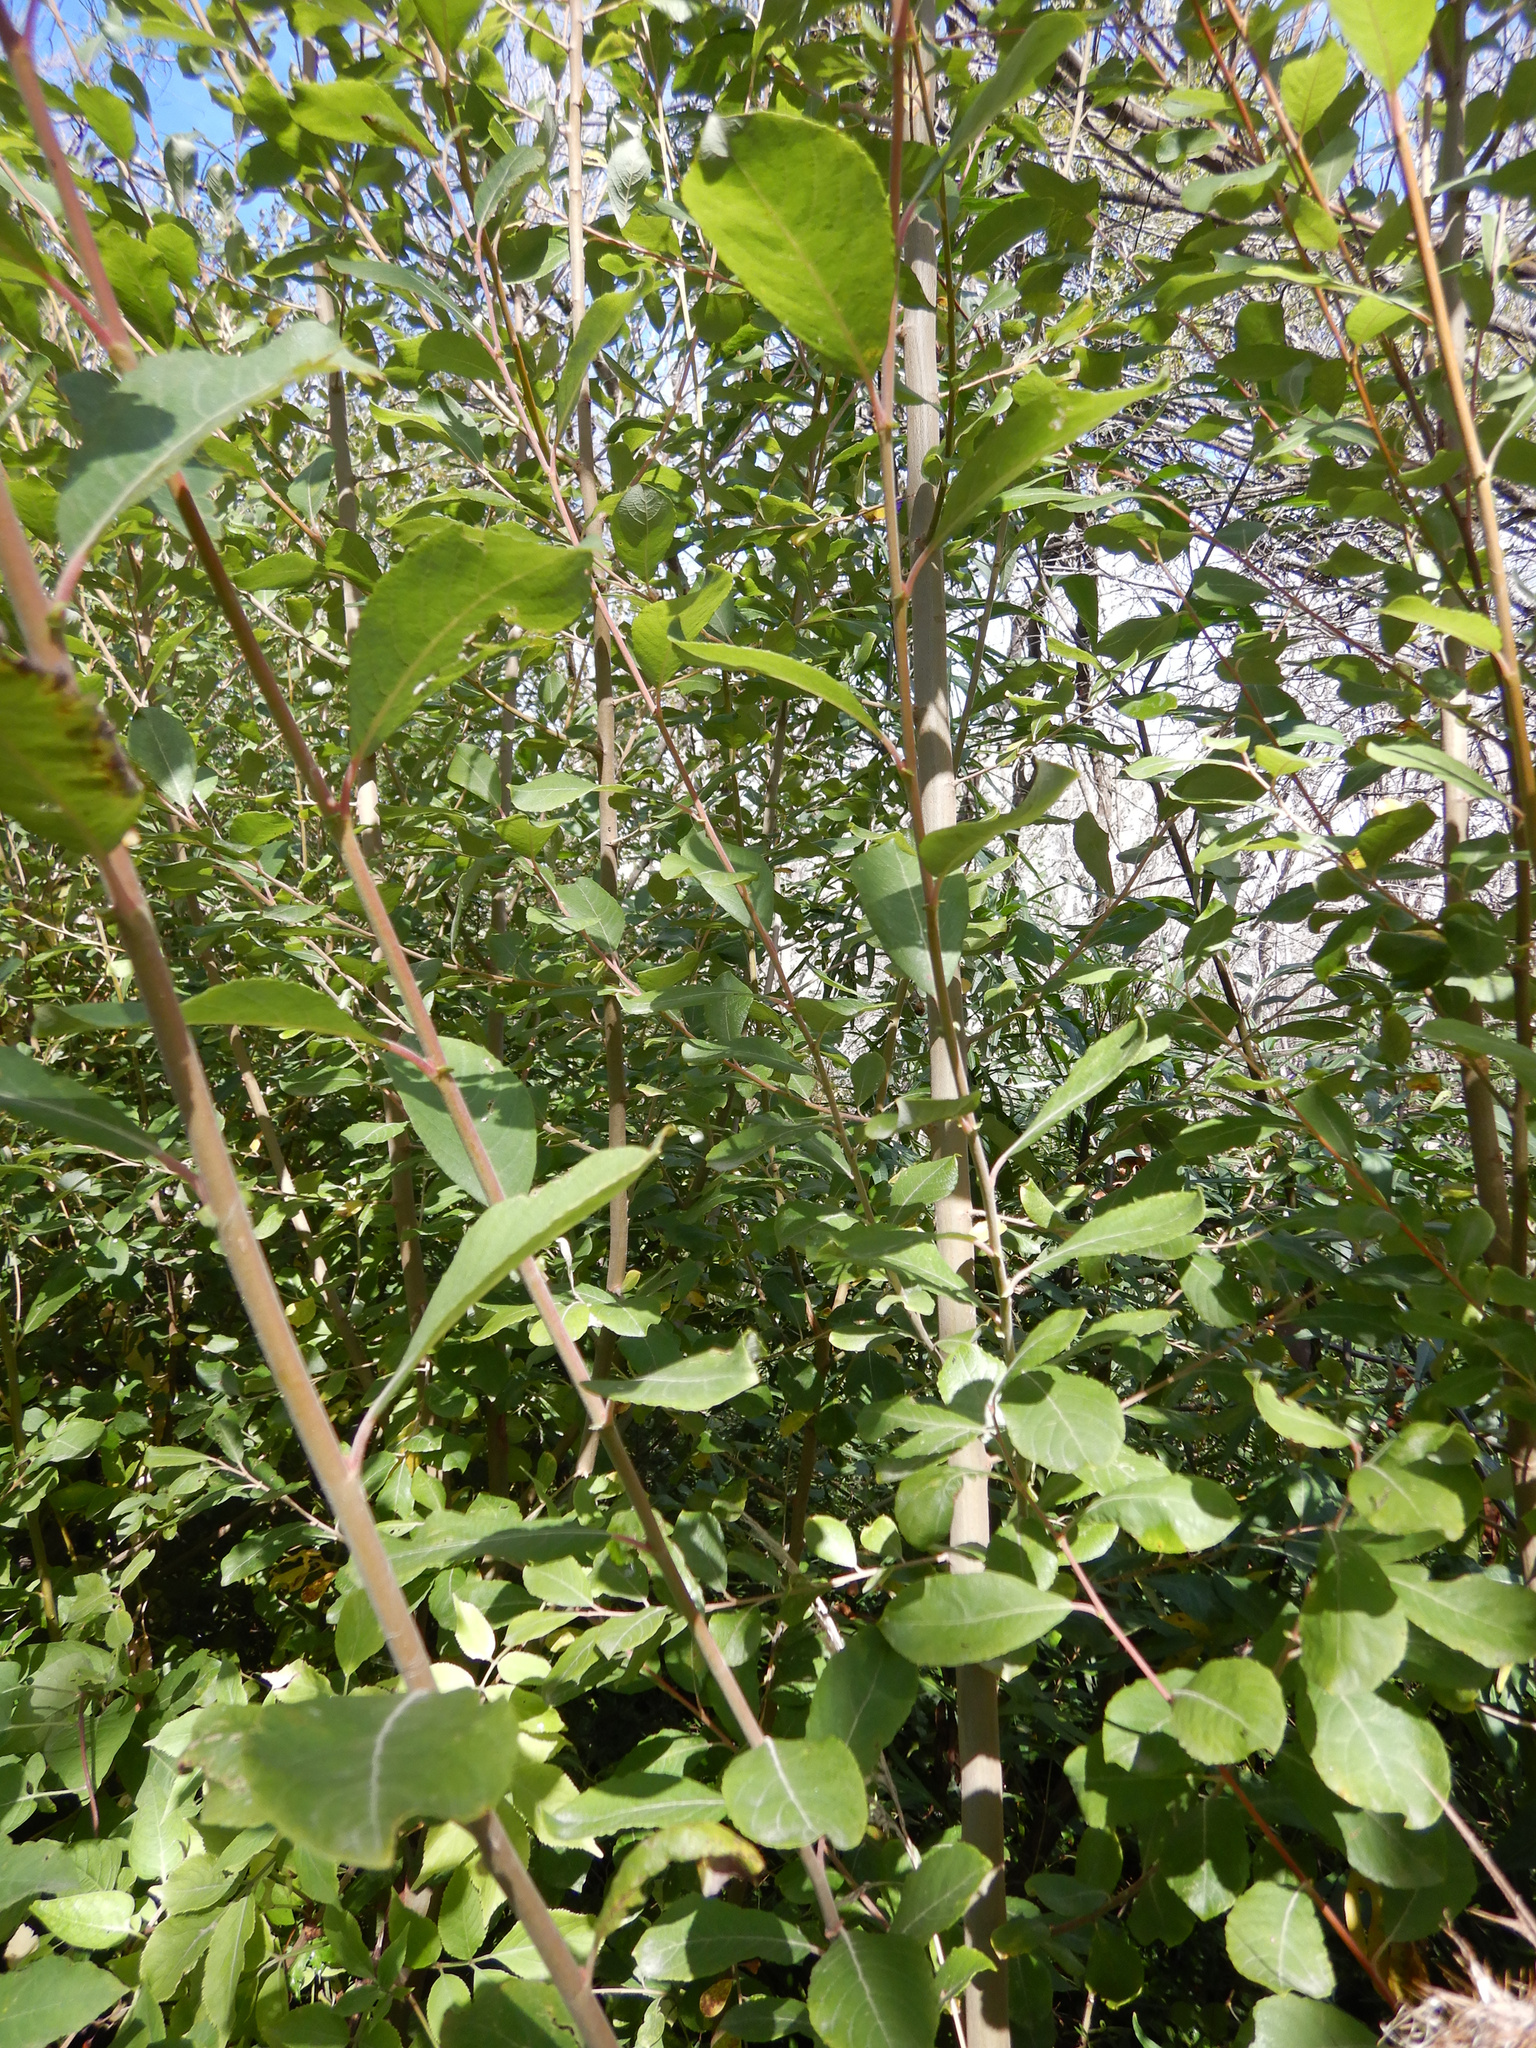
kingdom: Plantae
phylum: Tracheophyta
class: Magnoliopsida
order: Malpighiales
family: Salicaceae
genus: Salix
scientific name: Salix cinerea
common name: Common sallow
